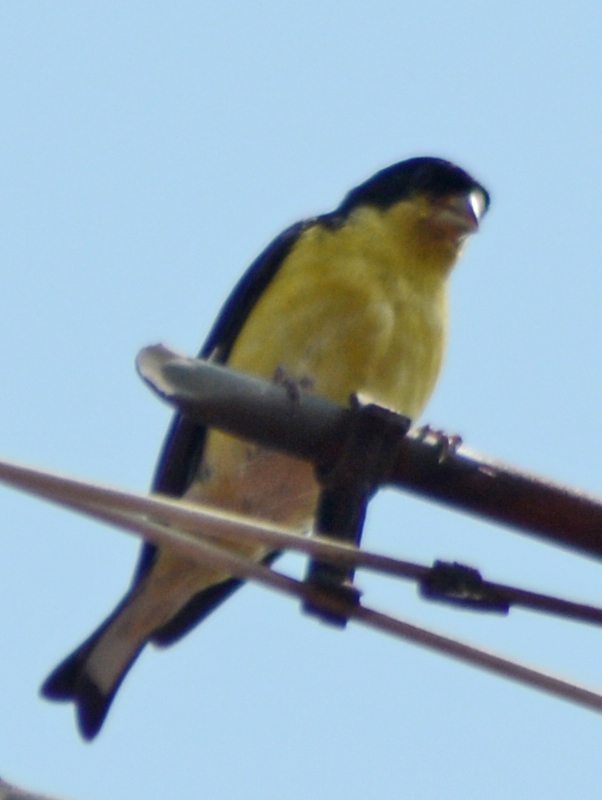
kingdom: Animalia
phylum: Chordata
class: Aves
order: Passeriformes
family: Fringillidae
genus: Spinus
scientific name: Spinus psaltria
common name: Lesser goldfinch
